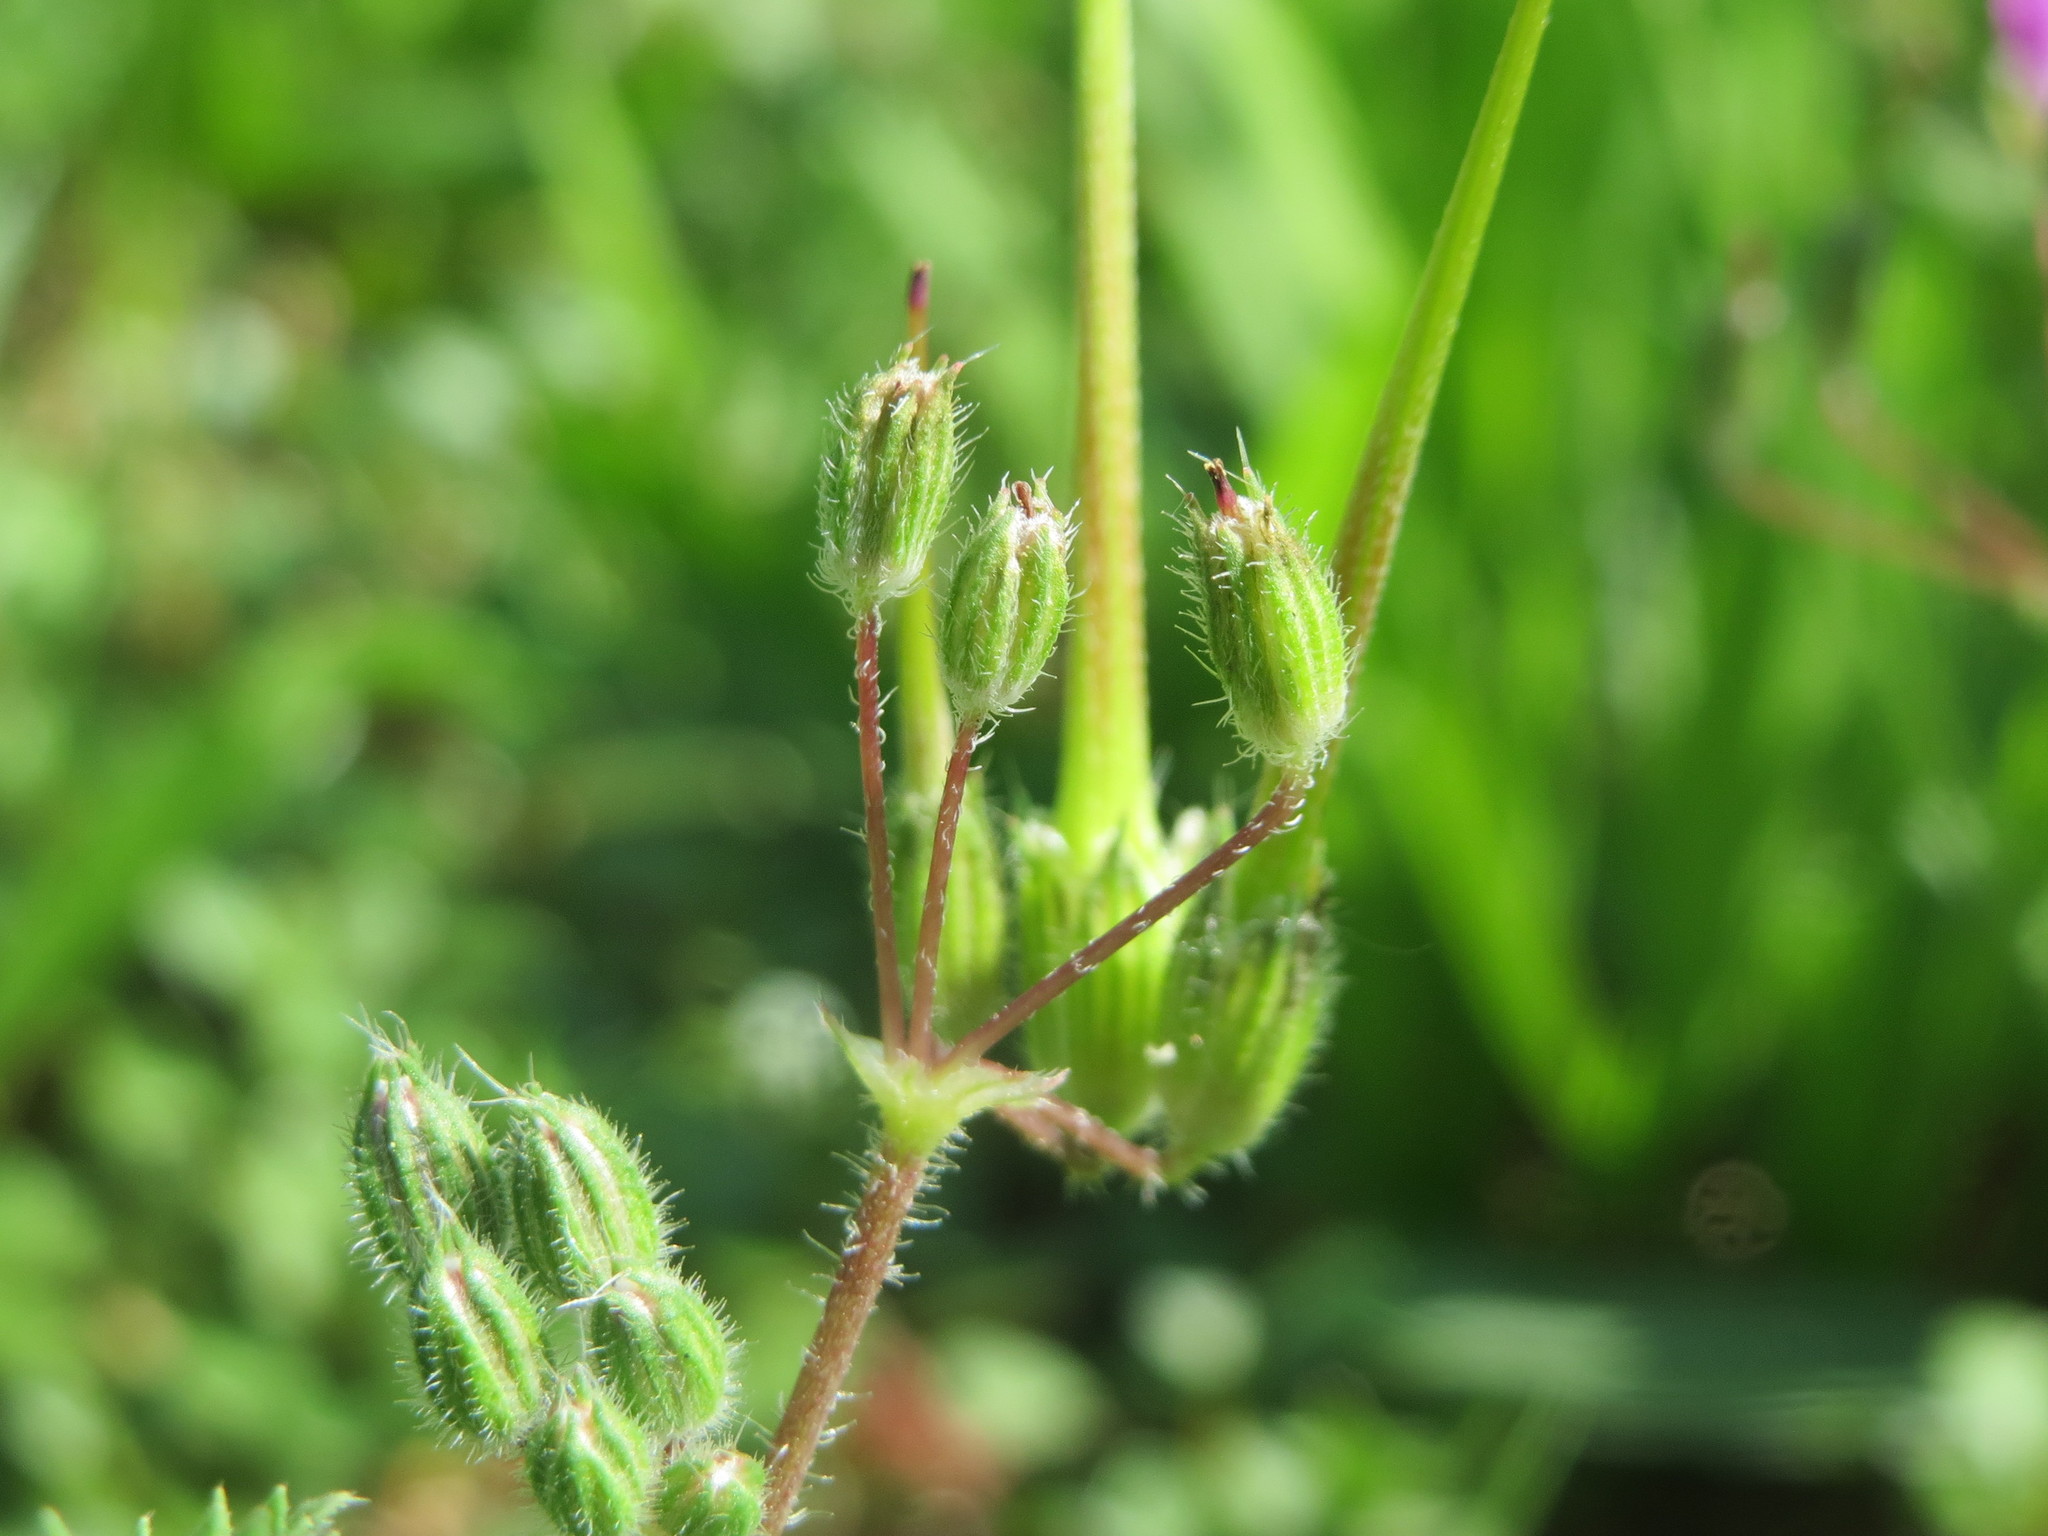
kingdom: Plantae
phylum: Tracheophyta
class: Magnoliopsida
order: Geraniales
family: Geraniaceae
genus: Erodium
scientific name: Erodium cicutarium
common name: Common stork's-bill
